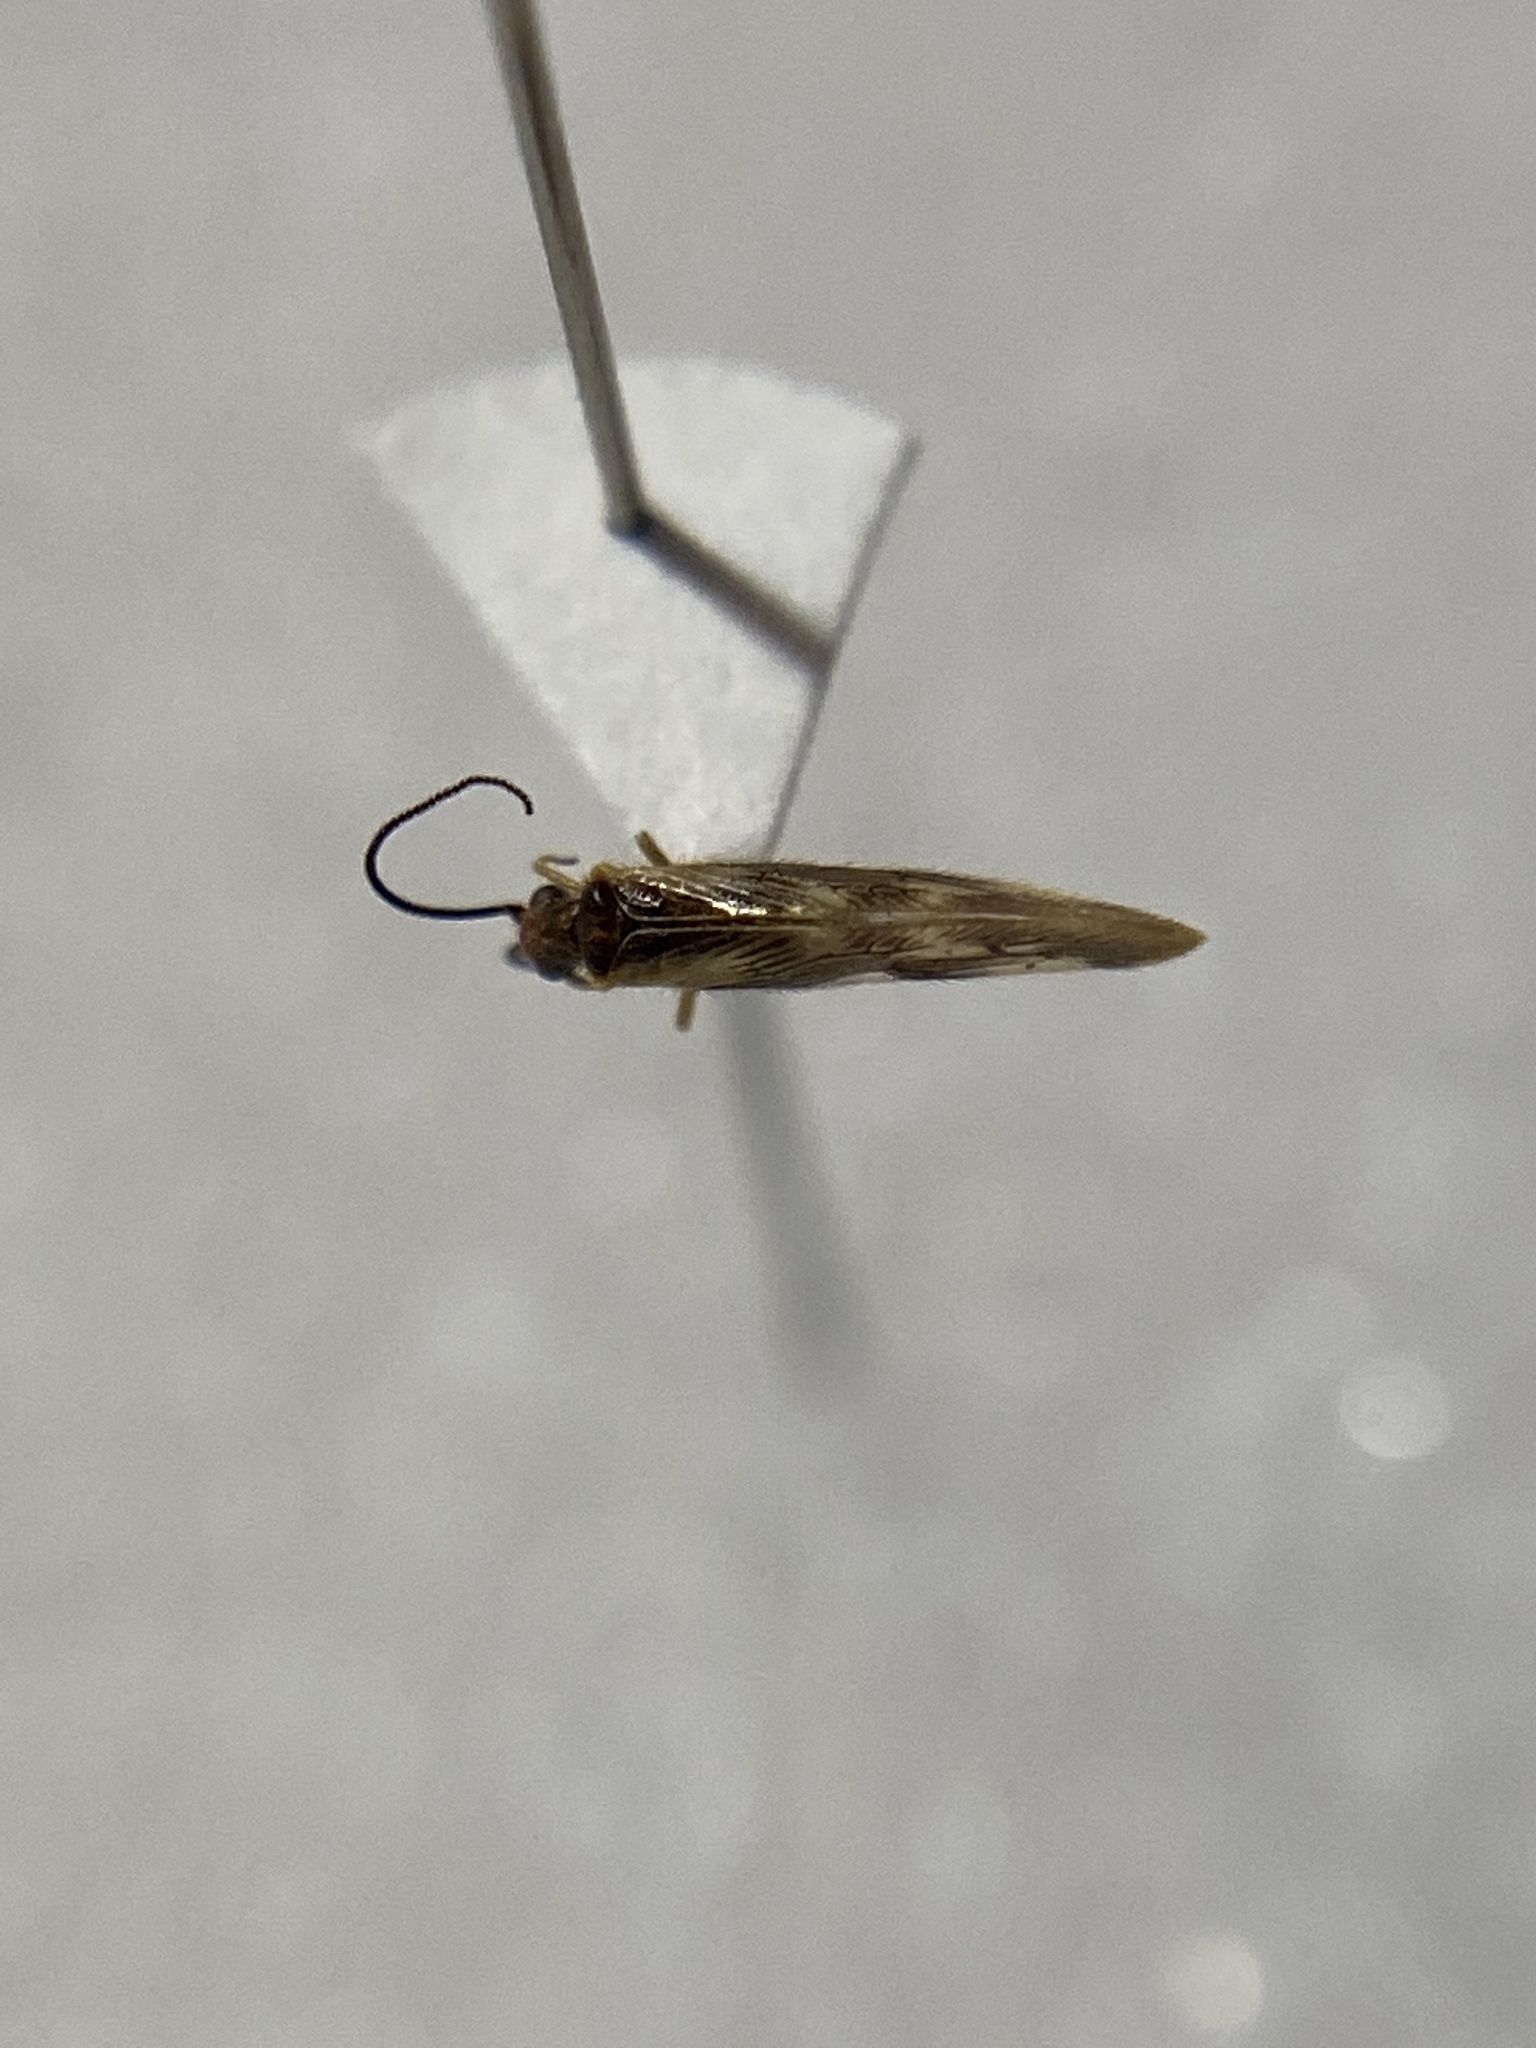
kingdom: Animalia
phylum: Arthropoda
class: Insecta
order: Neuroptera
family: Sisyridae
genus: Climacia
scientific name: Climacia areolaris
